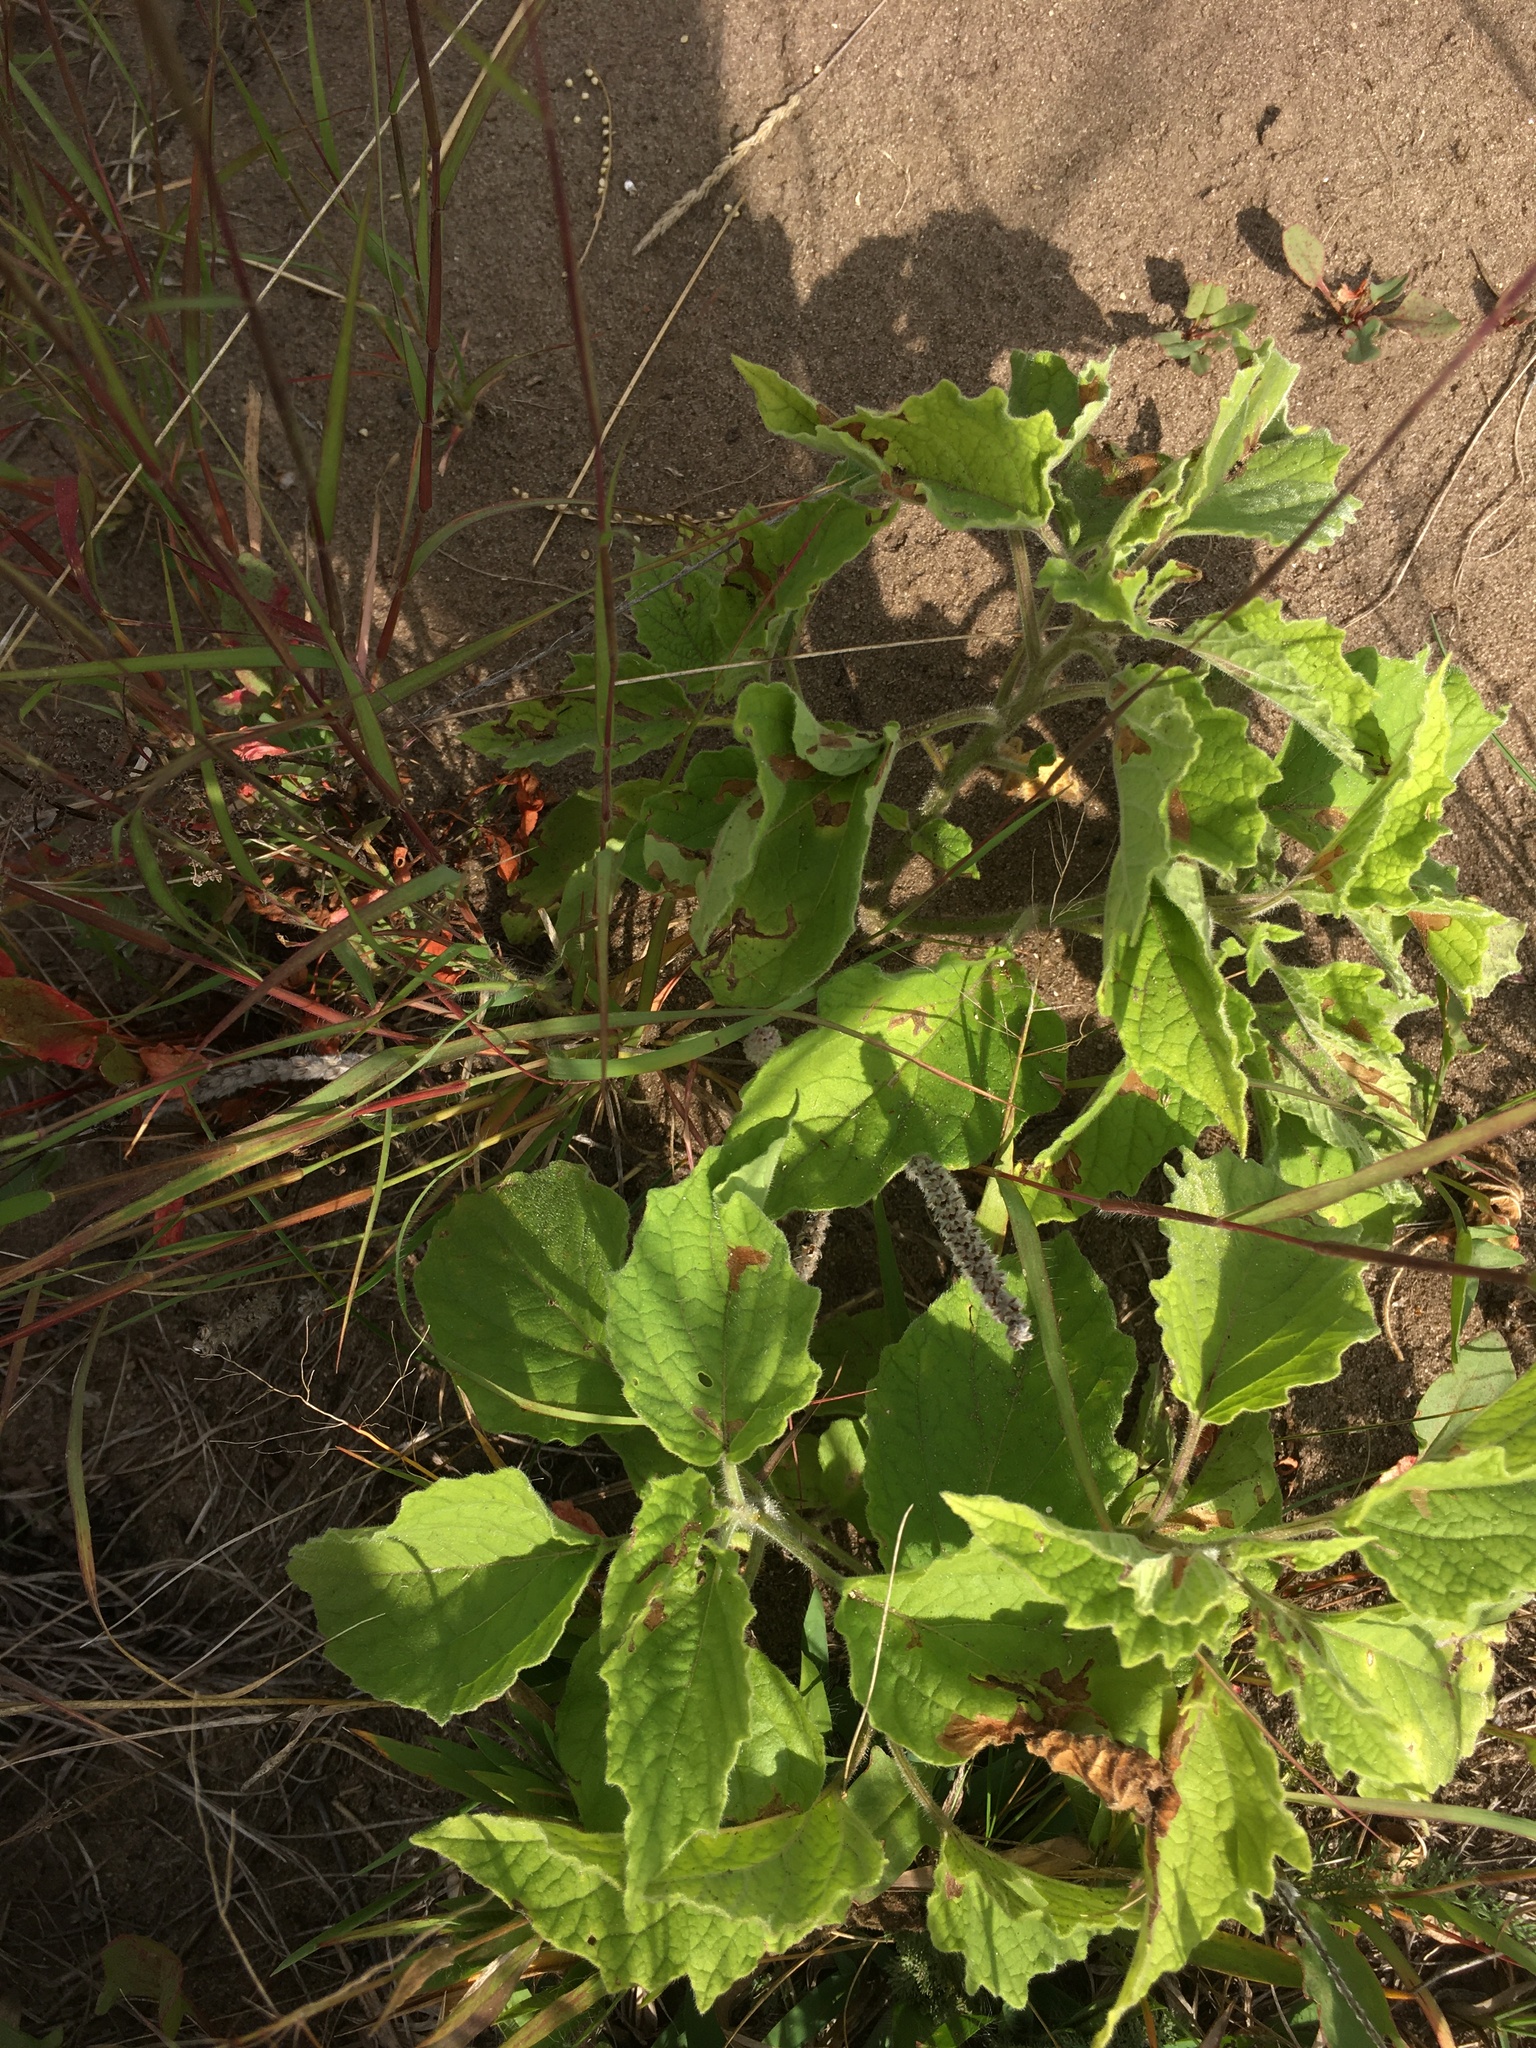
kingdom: Plantae
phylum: Tracheophyta
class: Magnoliopsida
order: Solanales
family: Solanaceae
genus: Physalis
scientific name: Physalis heterophylla
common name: Clammy ground-cherry
